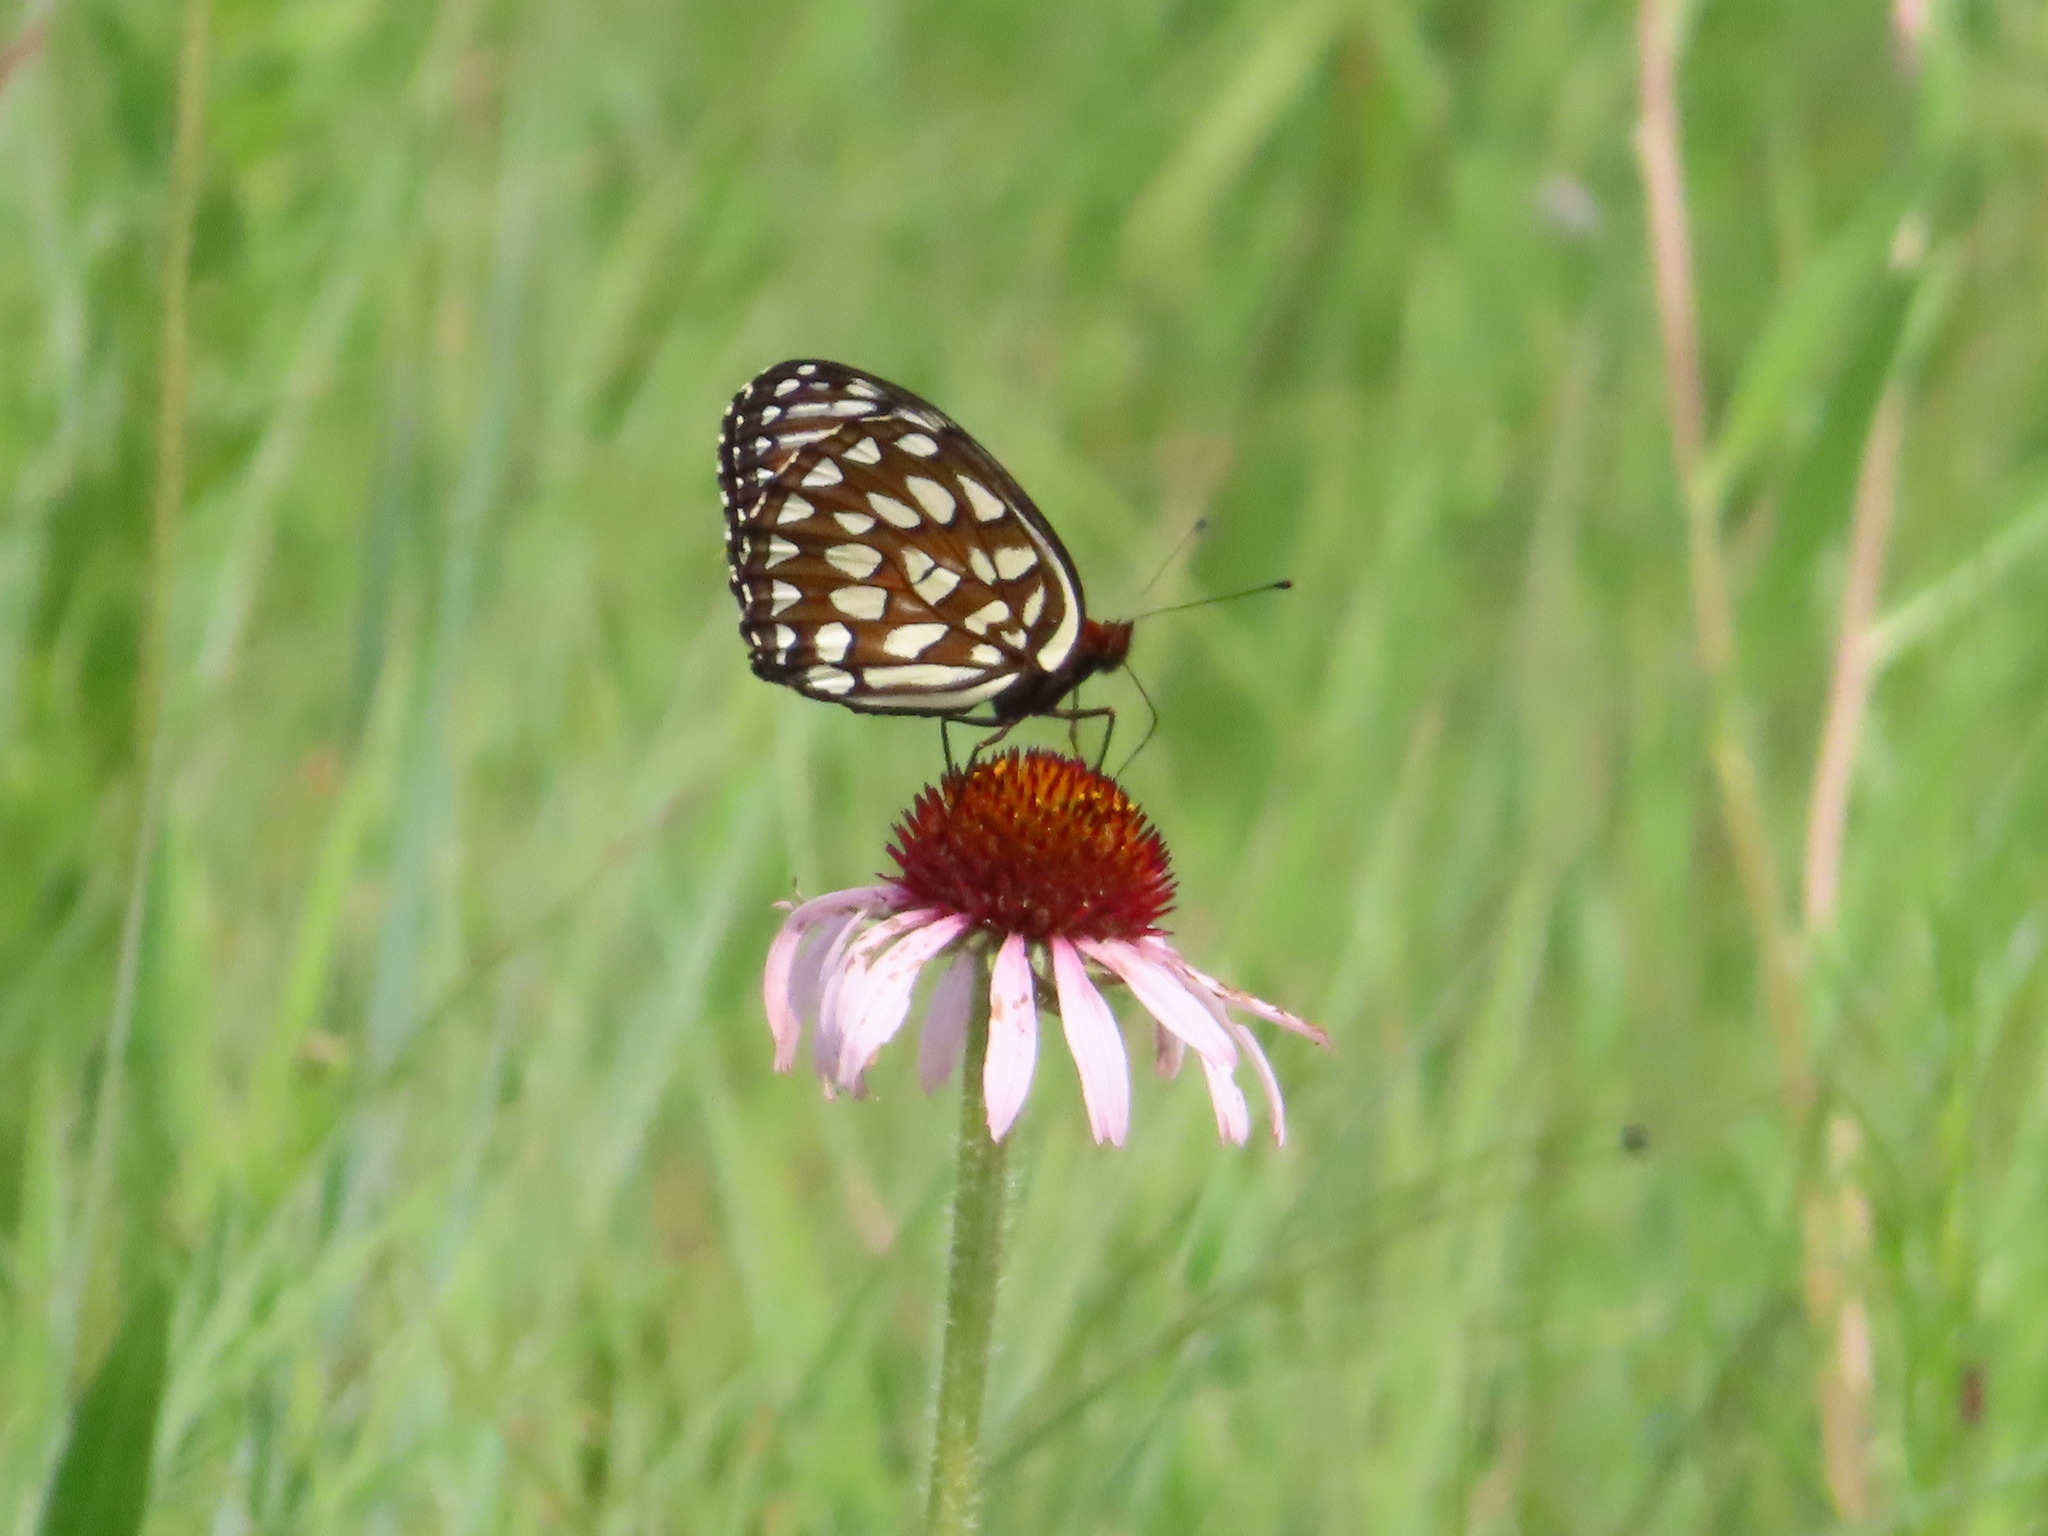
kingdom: Animalia
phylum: Arthropoda
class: Insecta
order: Lepidoptera
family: Nymphalidae
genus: Speyeria
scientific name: Speyeria idalia
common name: Regal fritillary
